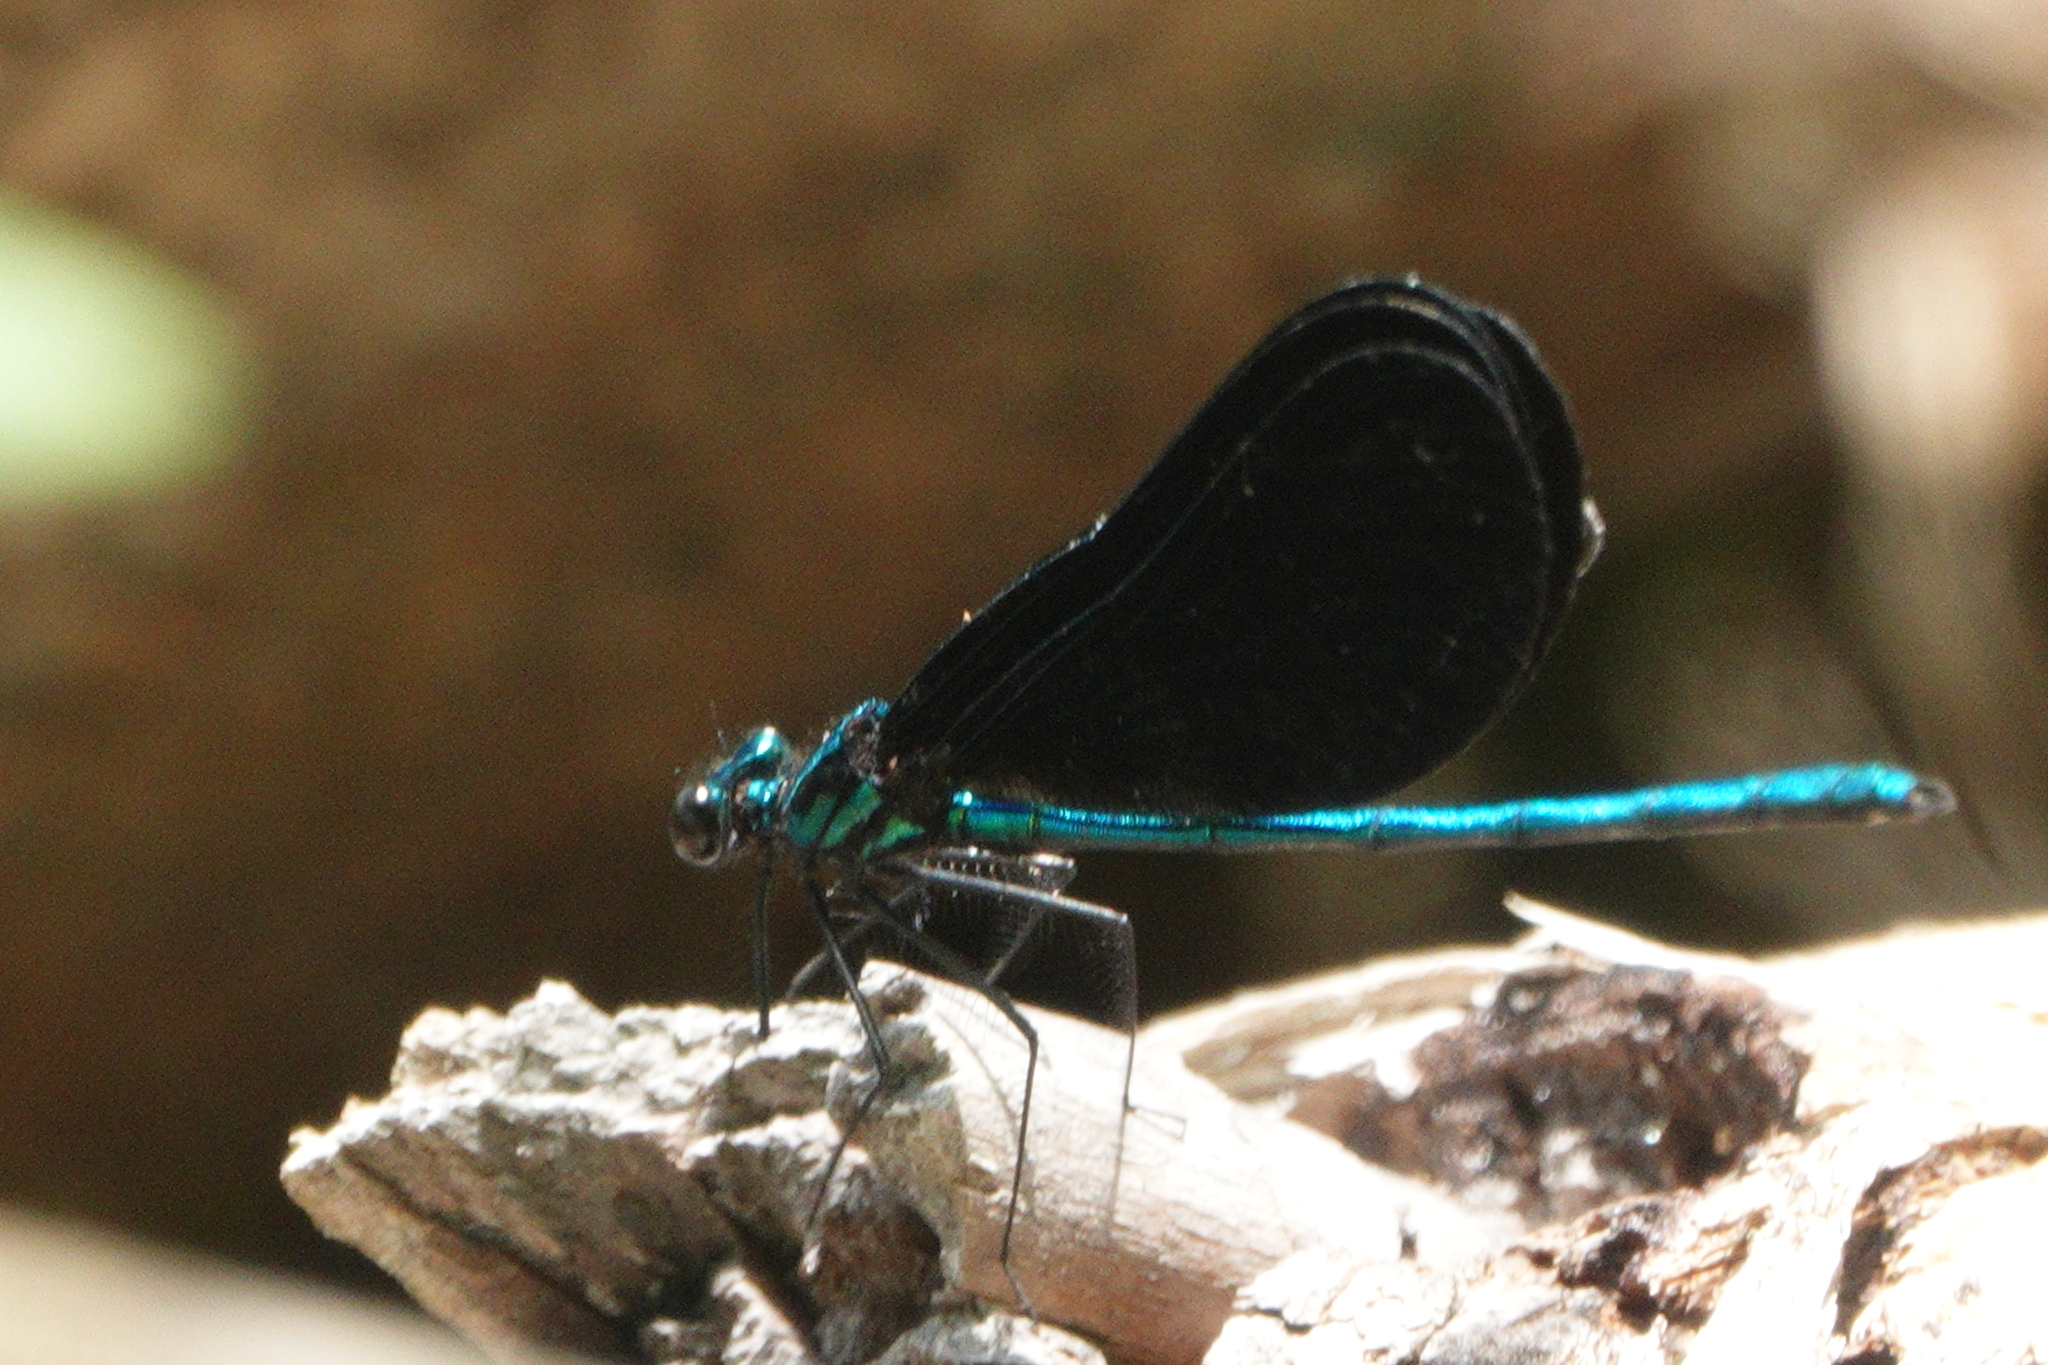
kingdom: Animalia
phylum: Arthropoda
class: Insecta
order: Odonata
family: Calopterygidae
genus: Calopteryx
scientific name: Calopteryx maculata
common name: Ebony jewelwing
